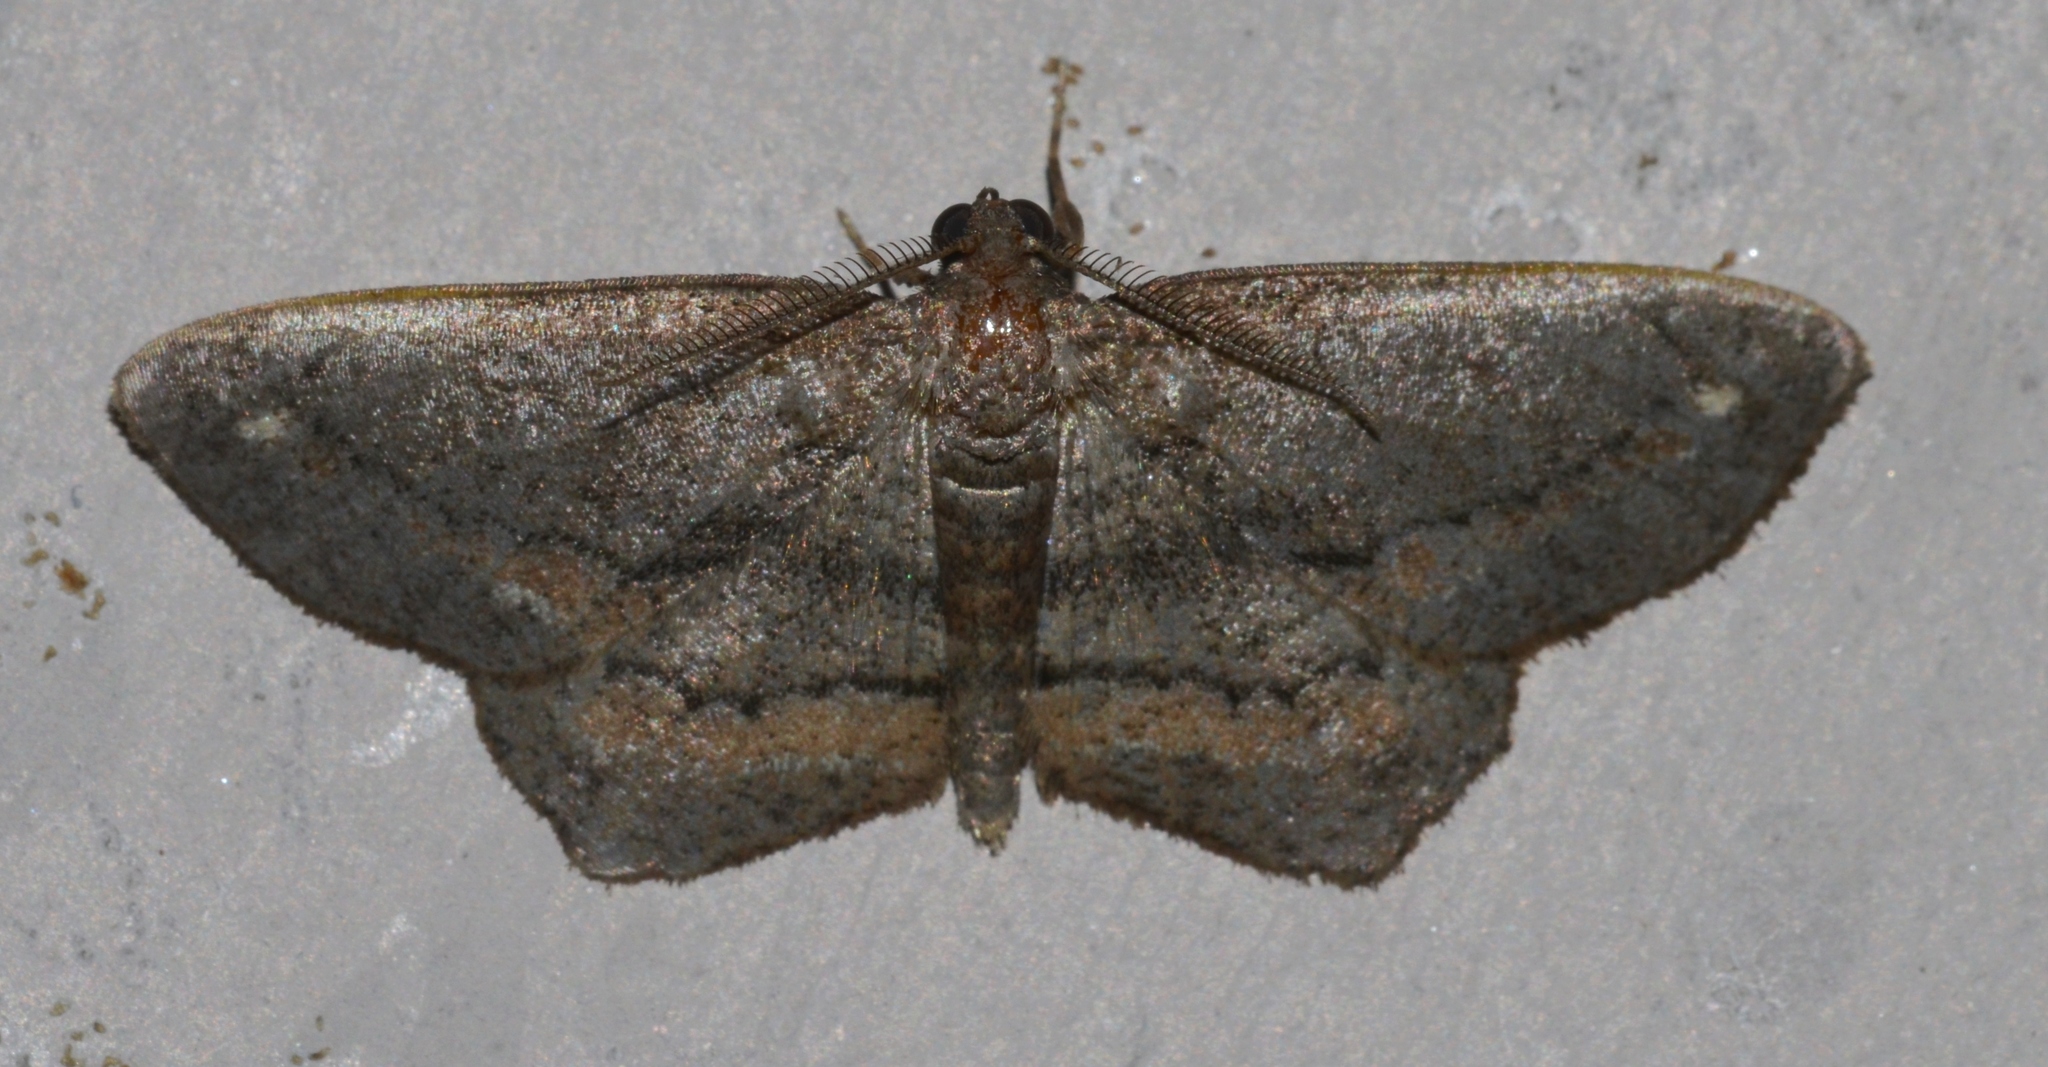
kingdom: Animalia
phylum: Arthropoda
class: Insecta
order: Lepidoptera
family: Geometridae
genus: Hypagyrtis
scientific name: Hypagyrtis brendae
